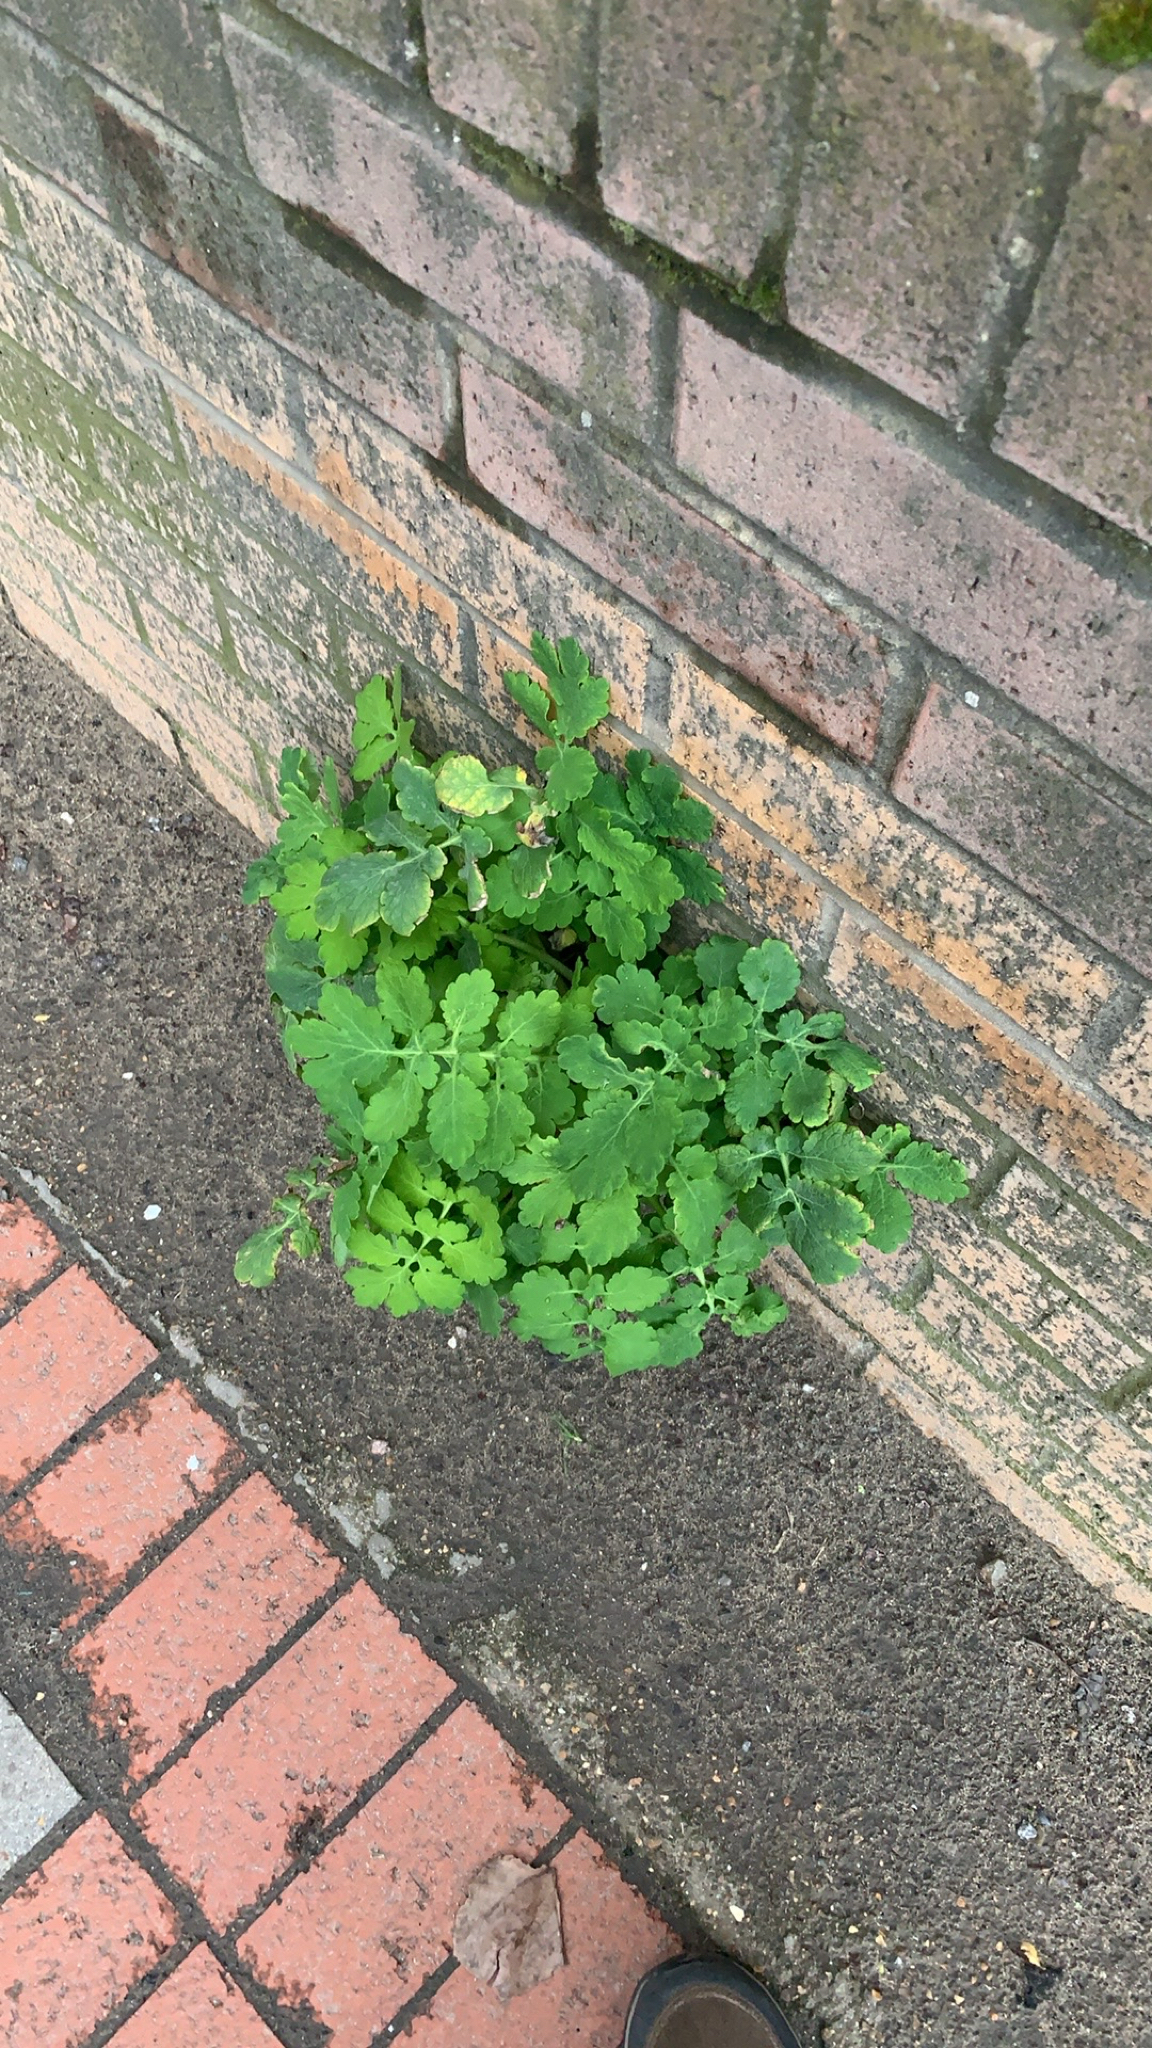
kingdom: Plantae
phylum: Tracheophyta
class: Magnoliopsida
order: Ranunculales
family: Papaveraceae
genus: Chelidonium
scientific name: Chelidonium majus
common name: Greater celandine
